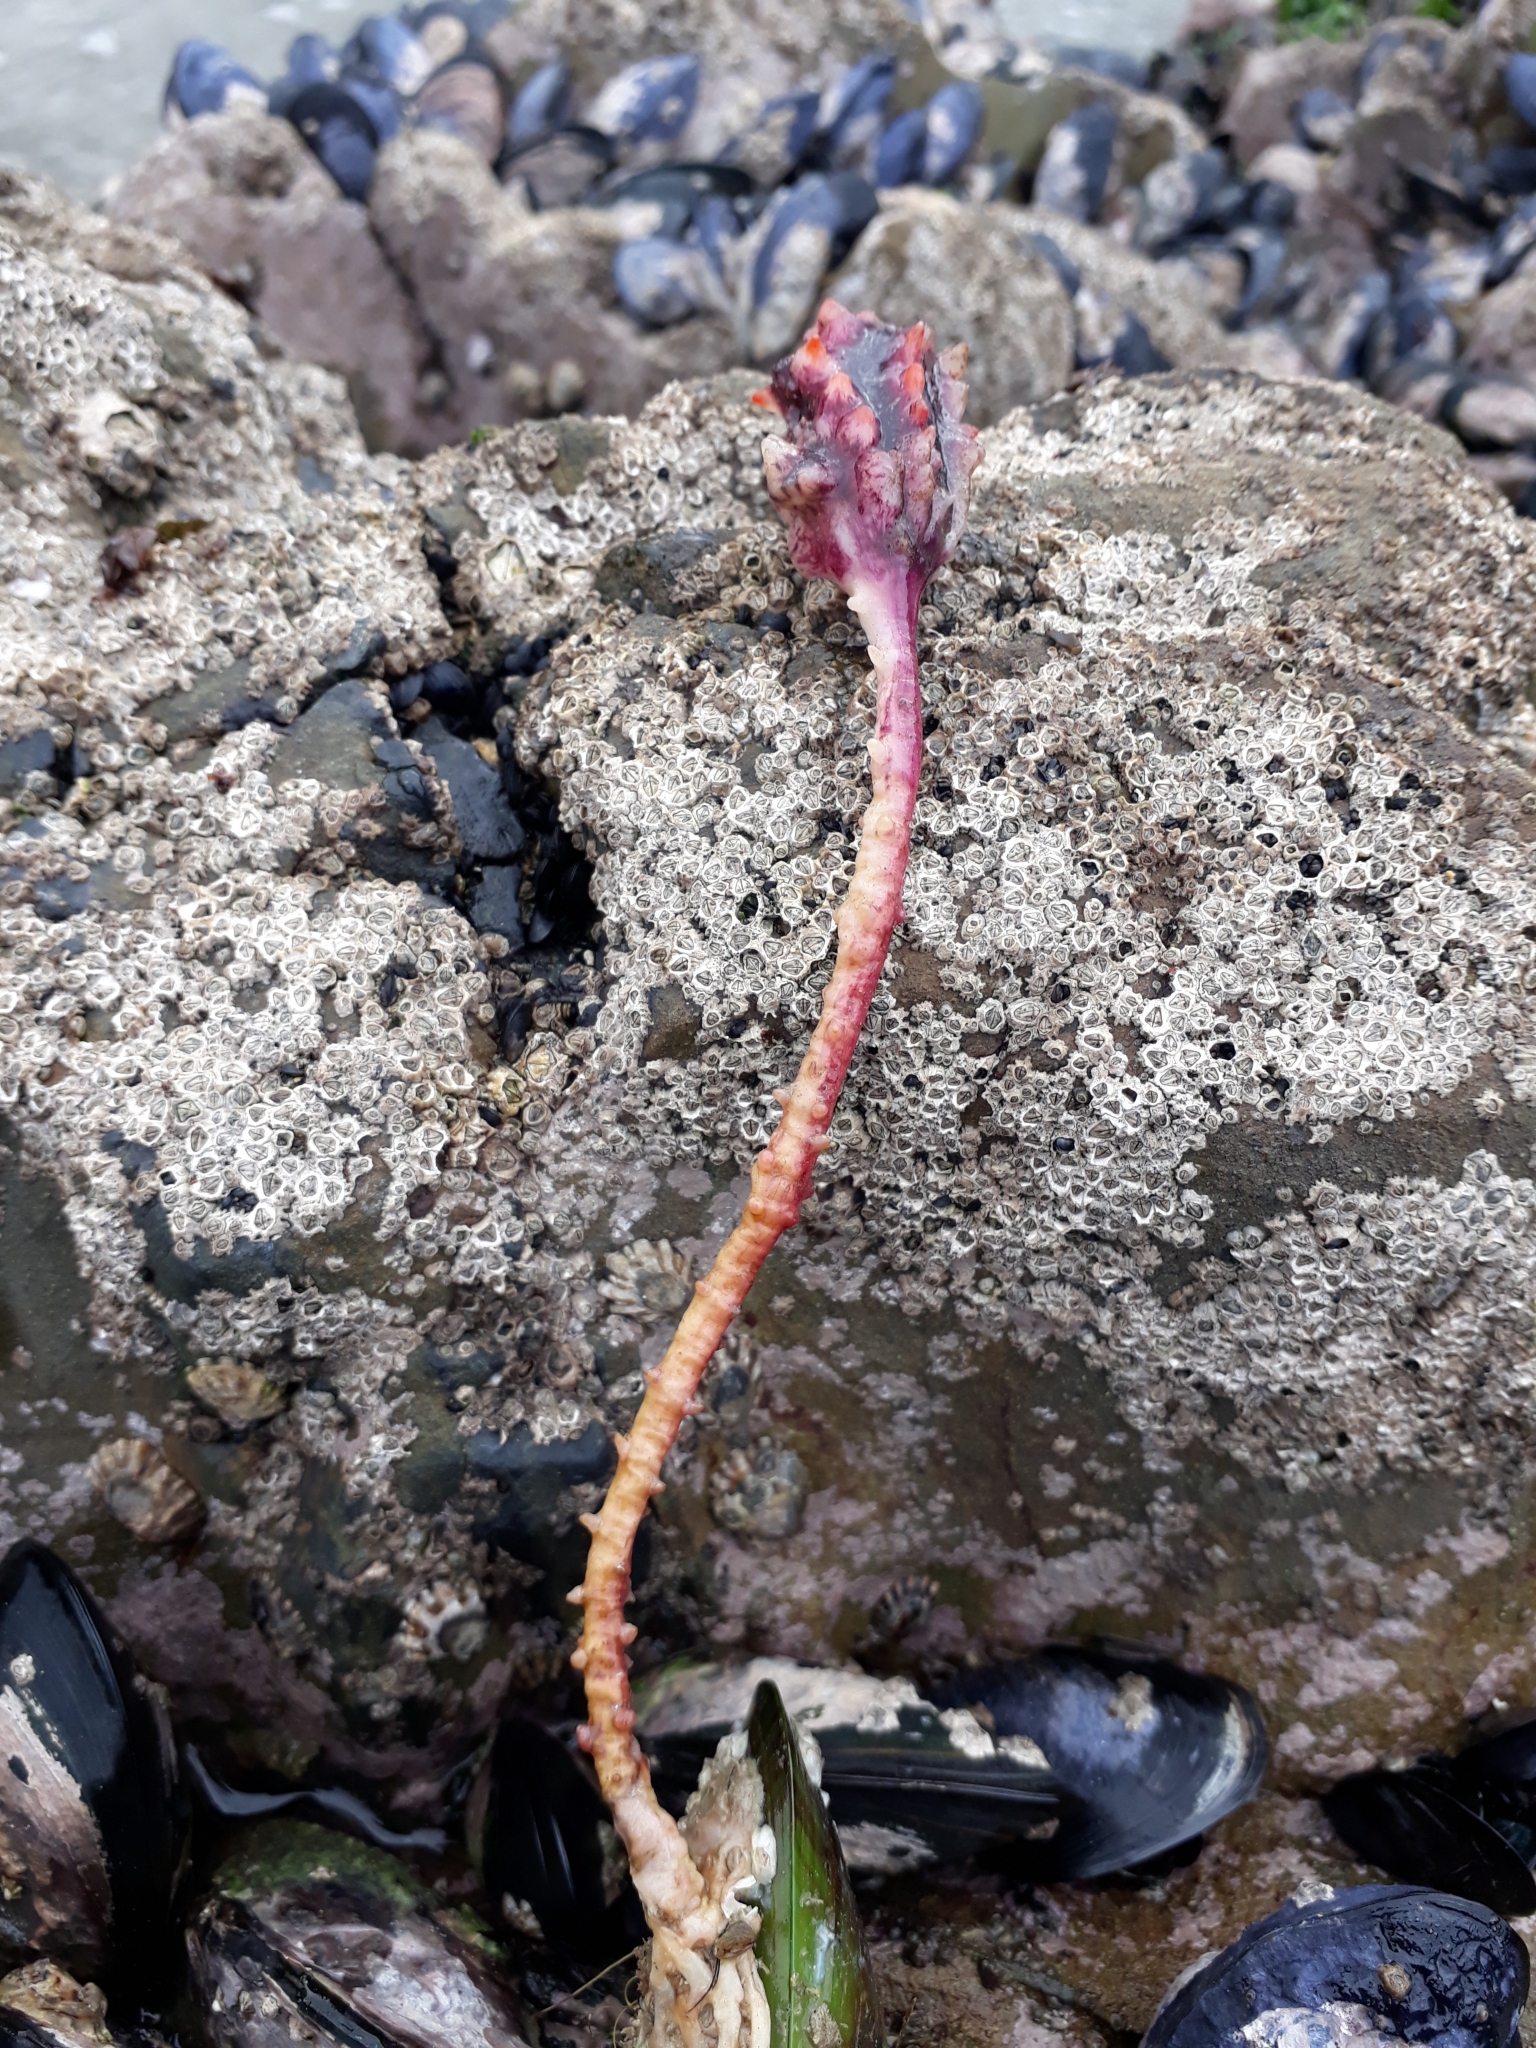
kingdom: Animalia
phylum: Chordata
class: Ascidiacea
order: Stolidobranchia
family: Pyuridae
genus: Pyura
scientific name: Pyura pachydermatina
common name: Sea tulip
